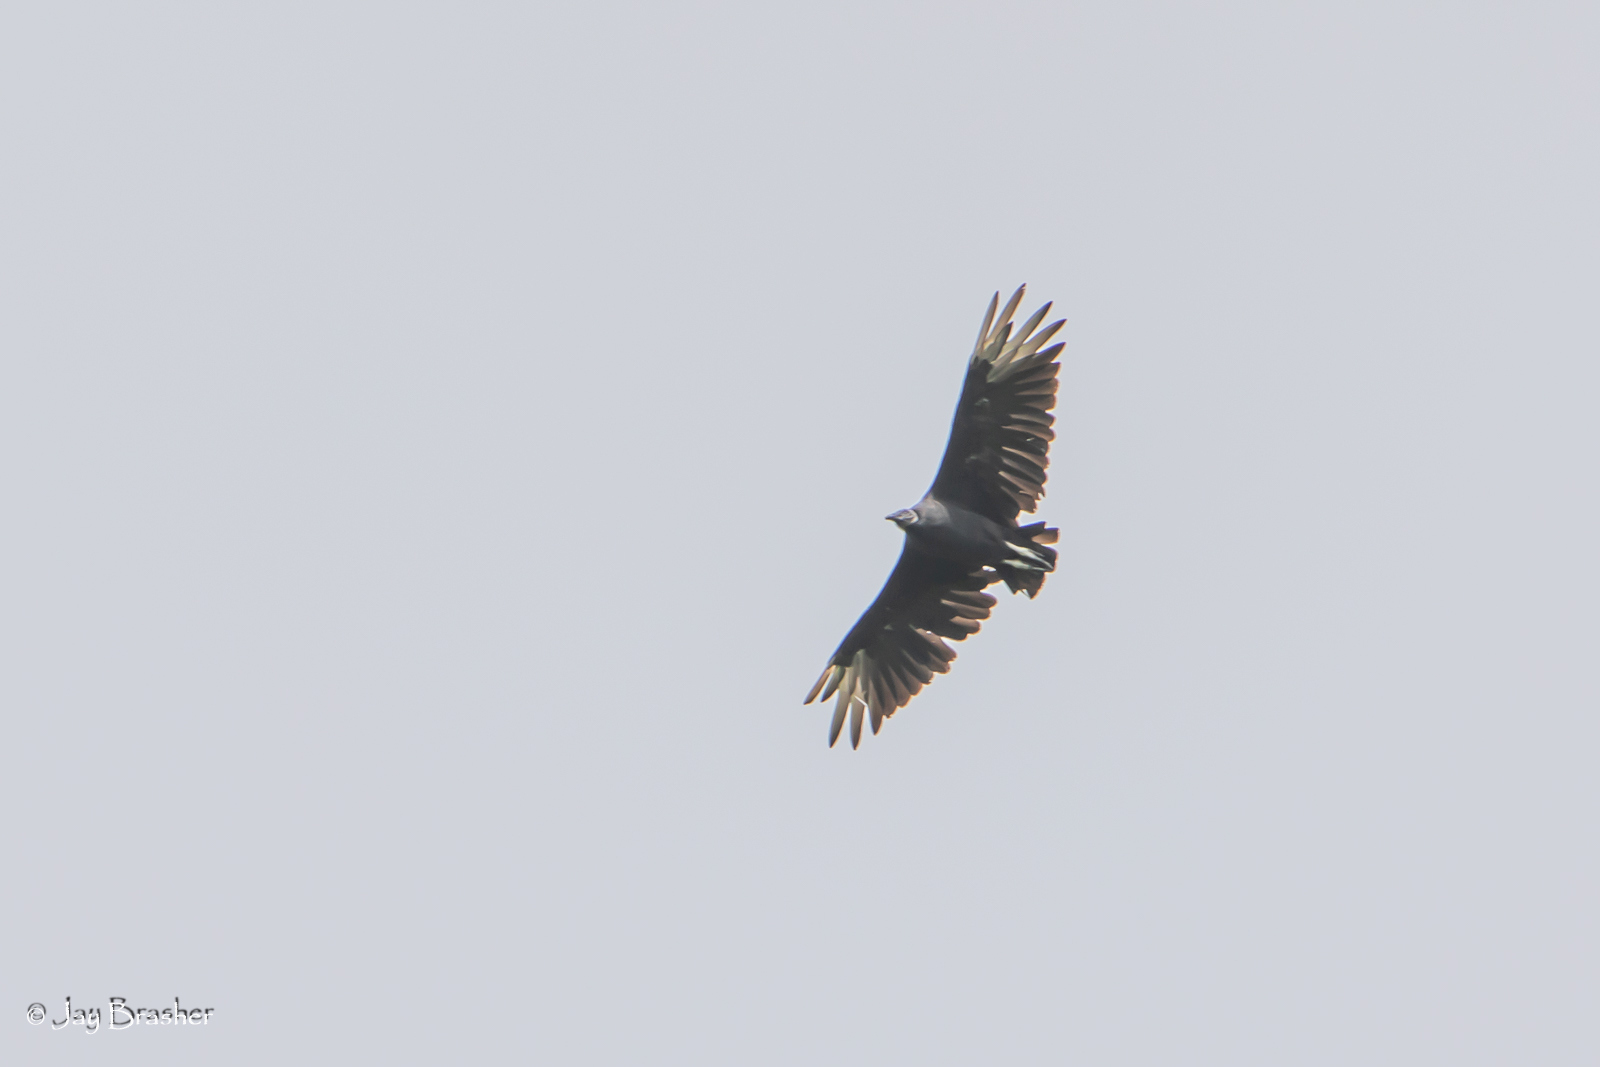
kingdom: Animalia
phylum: Chordata
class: Aves
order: Accipitriformes
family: Cathartidae
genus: Coragyps
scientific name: Coragyps atratus
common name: Black vulture
